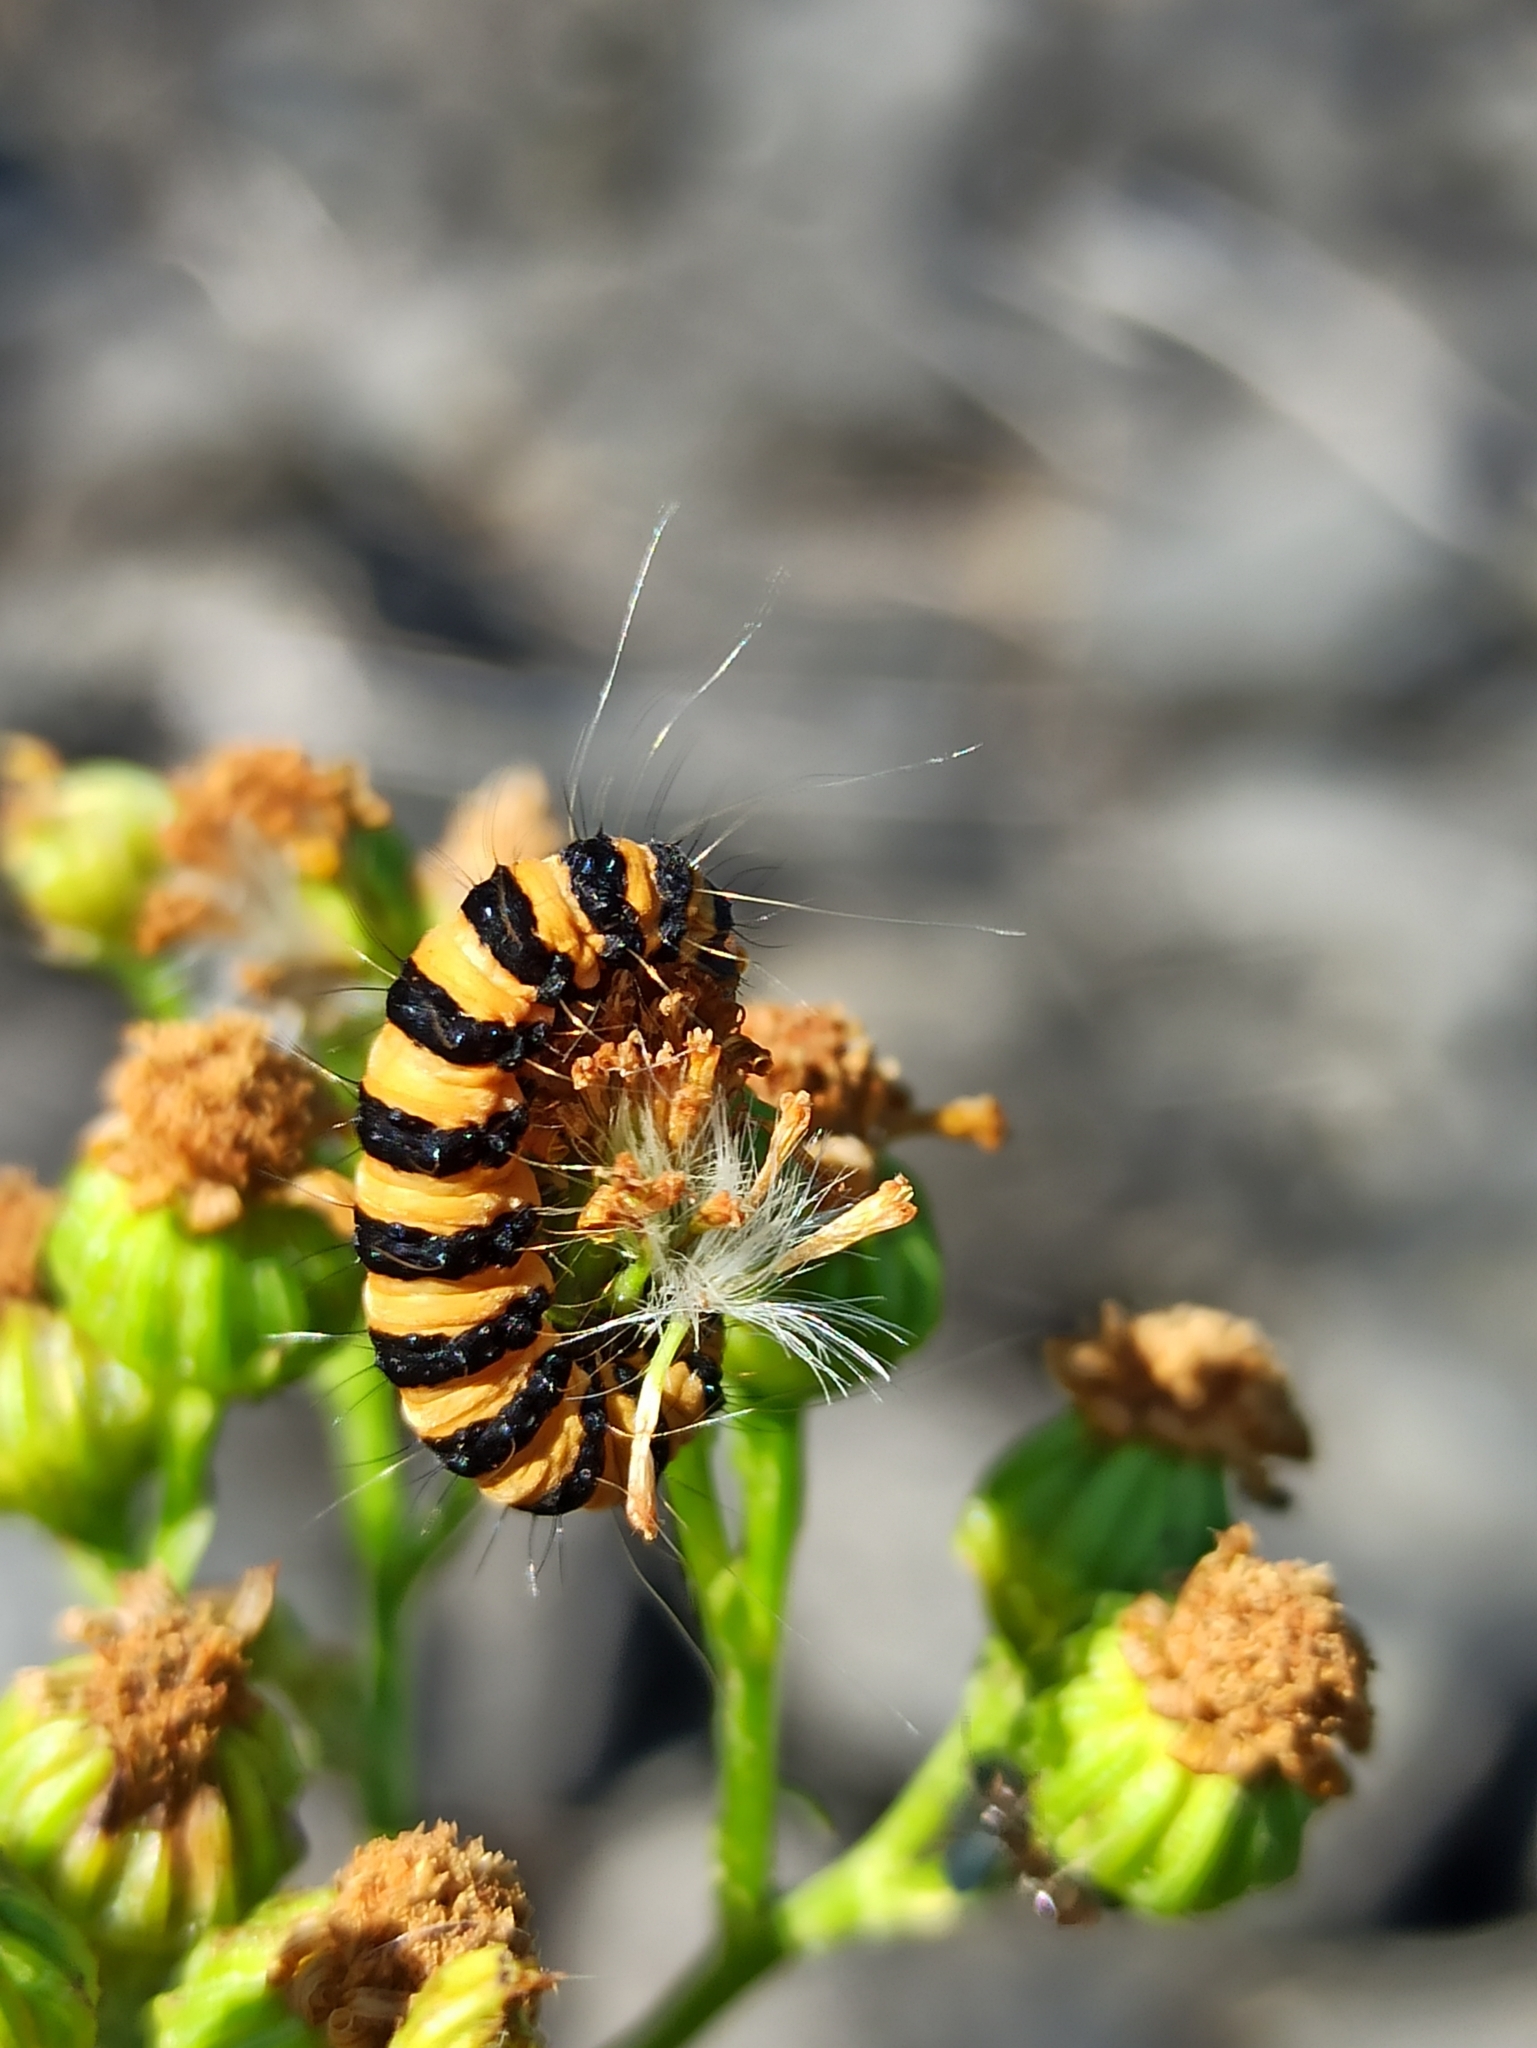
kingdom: Animalia
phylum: Arthropoda
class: Insecta
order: Lepidoptera
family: Erebidae
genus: Tyria
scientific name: Tyria jacobaeae
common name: Cinnabar
